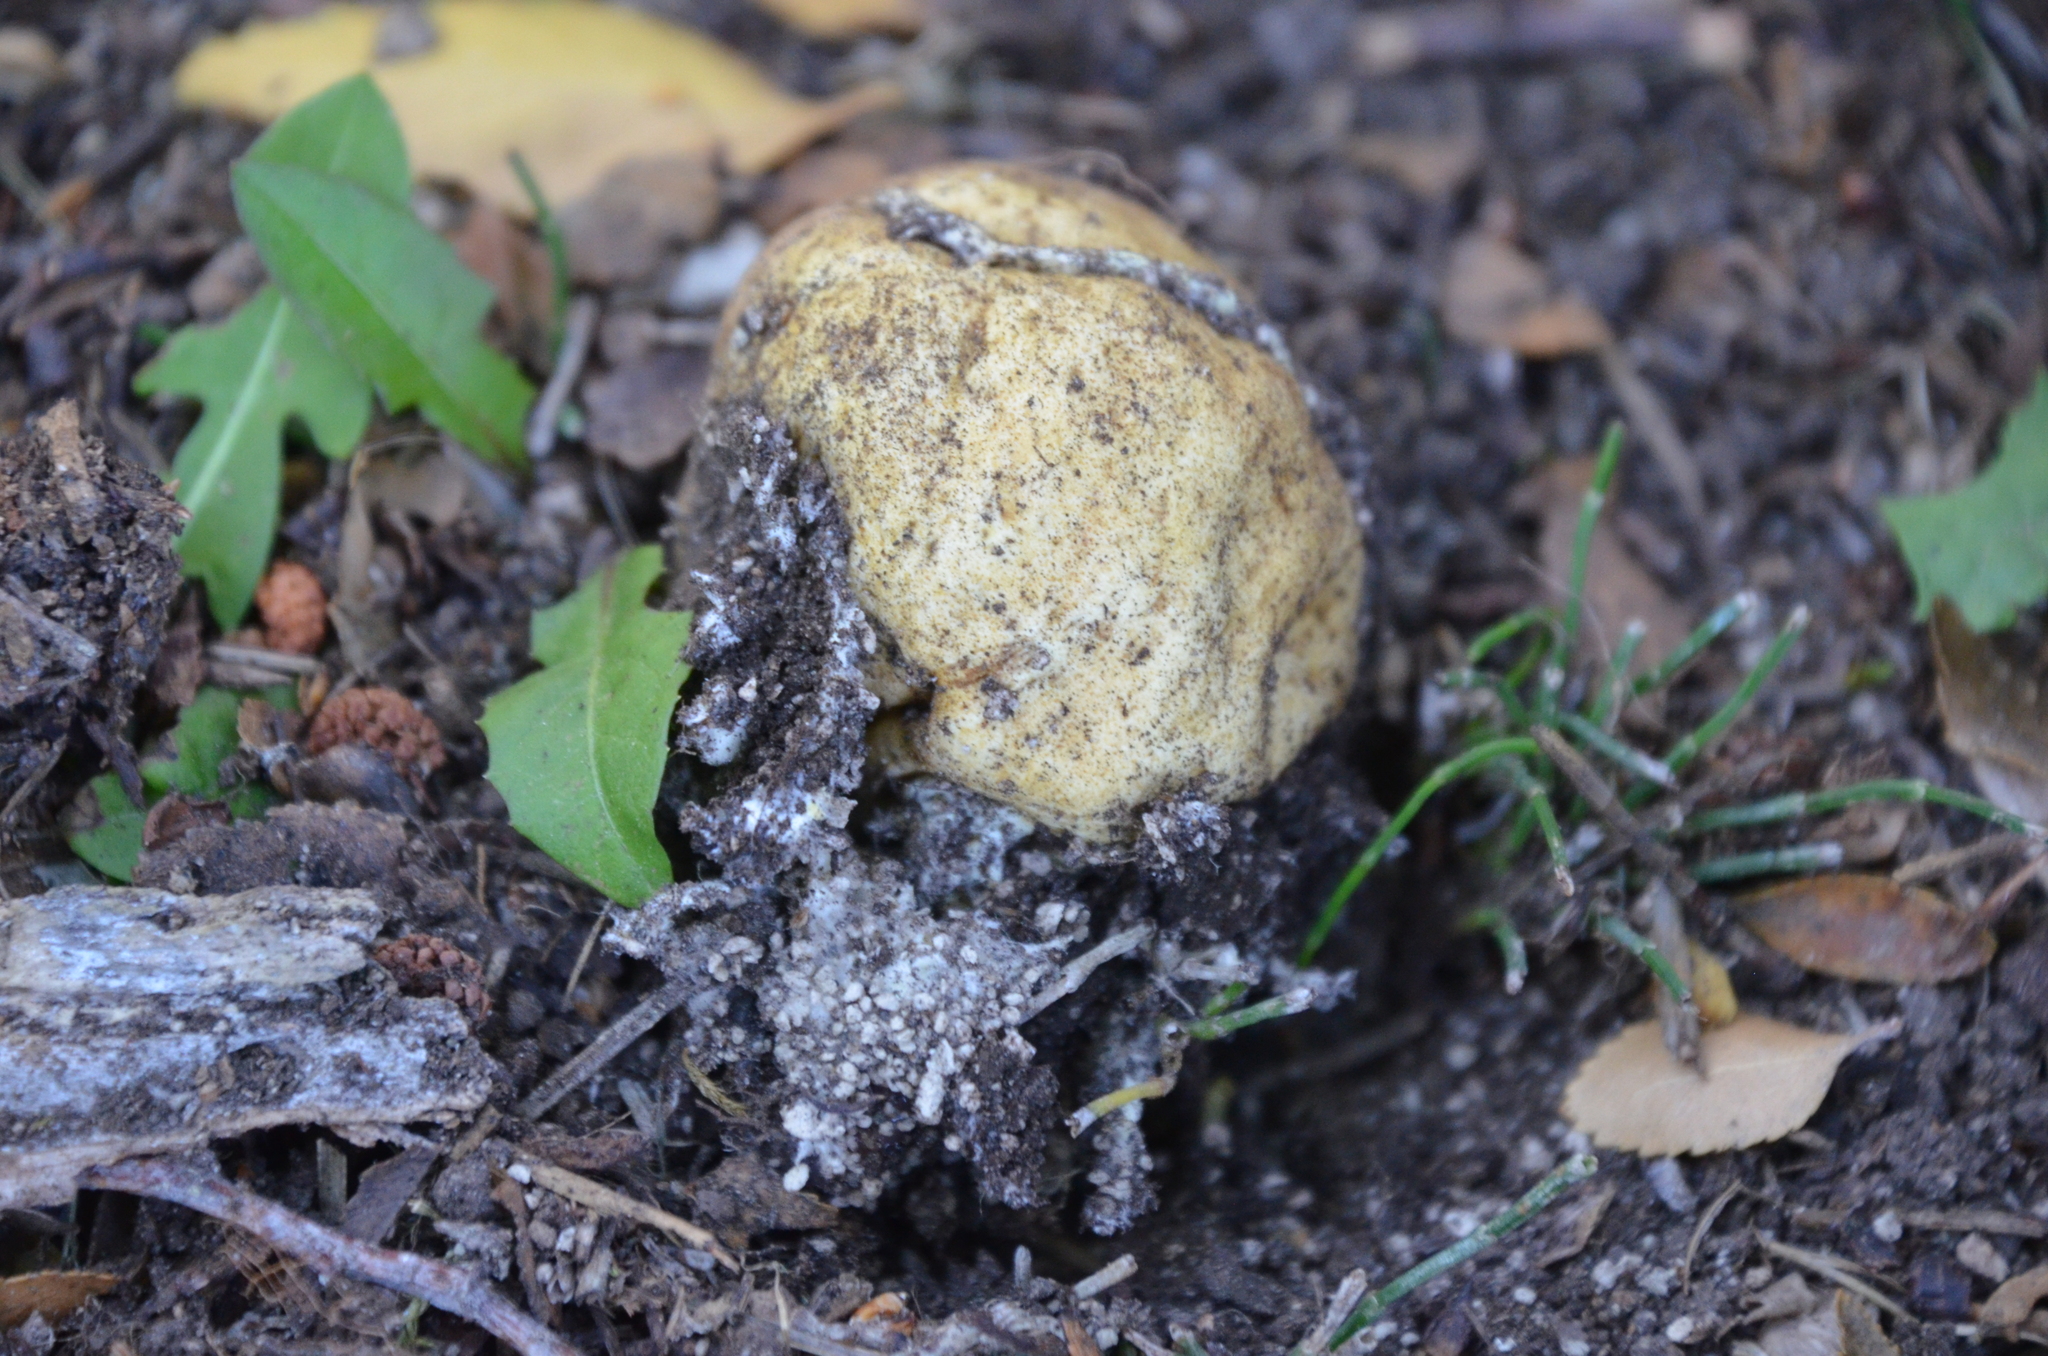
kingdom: Fungi
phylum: Basidiomycota
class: Agaricomycetes
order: Boletales
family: Sclerodermataceae
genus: Scleroderma
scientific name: Scleroderma citrinum
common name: Common earthball
